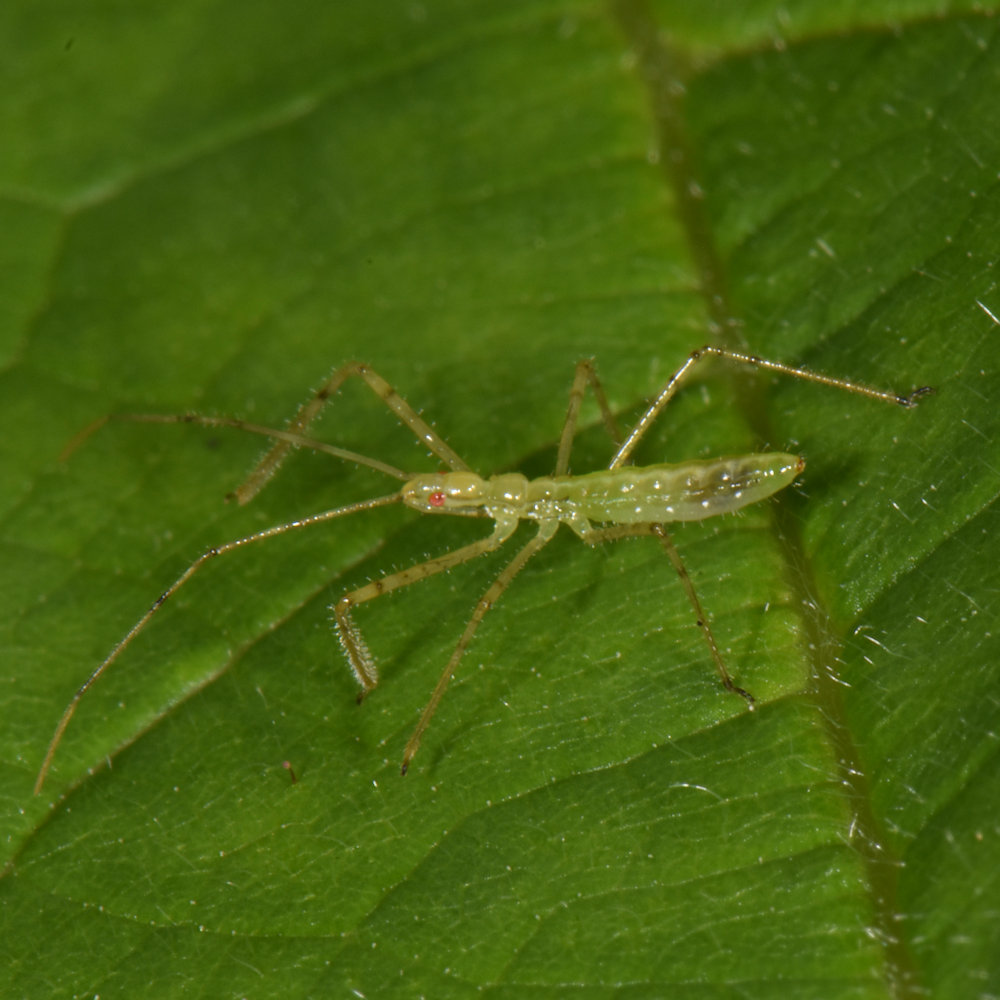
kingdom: Animalia
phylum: Arthropoda
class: Insecta
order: Hemiptera
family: Reduviidae
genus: Zelus
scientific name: Zelus luridus
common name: Pale green assassin bug
